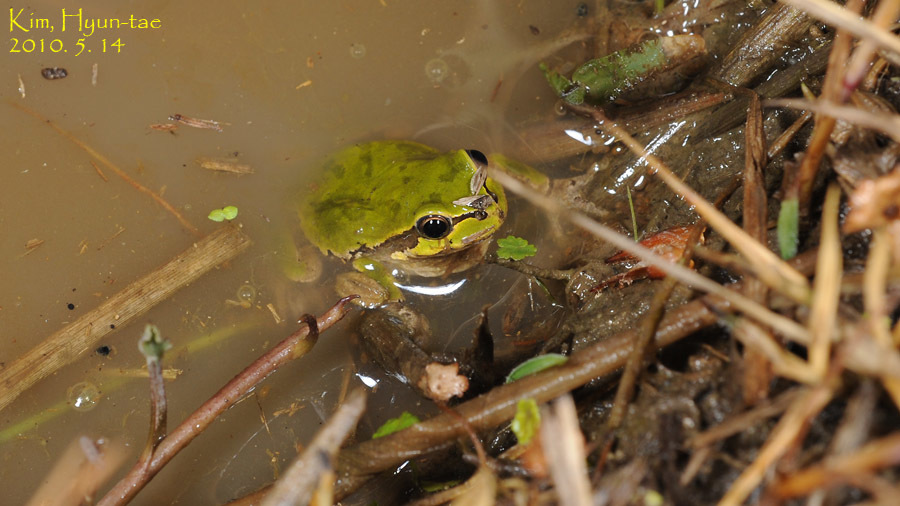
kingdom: Animalia
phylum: Chordata
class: Amphibia
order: Anura
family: Hylidae
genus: Dryophytes
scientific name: Dryophytes japonicus
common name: Japanese treefrog
